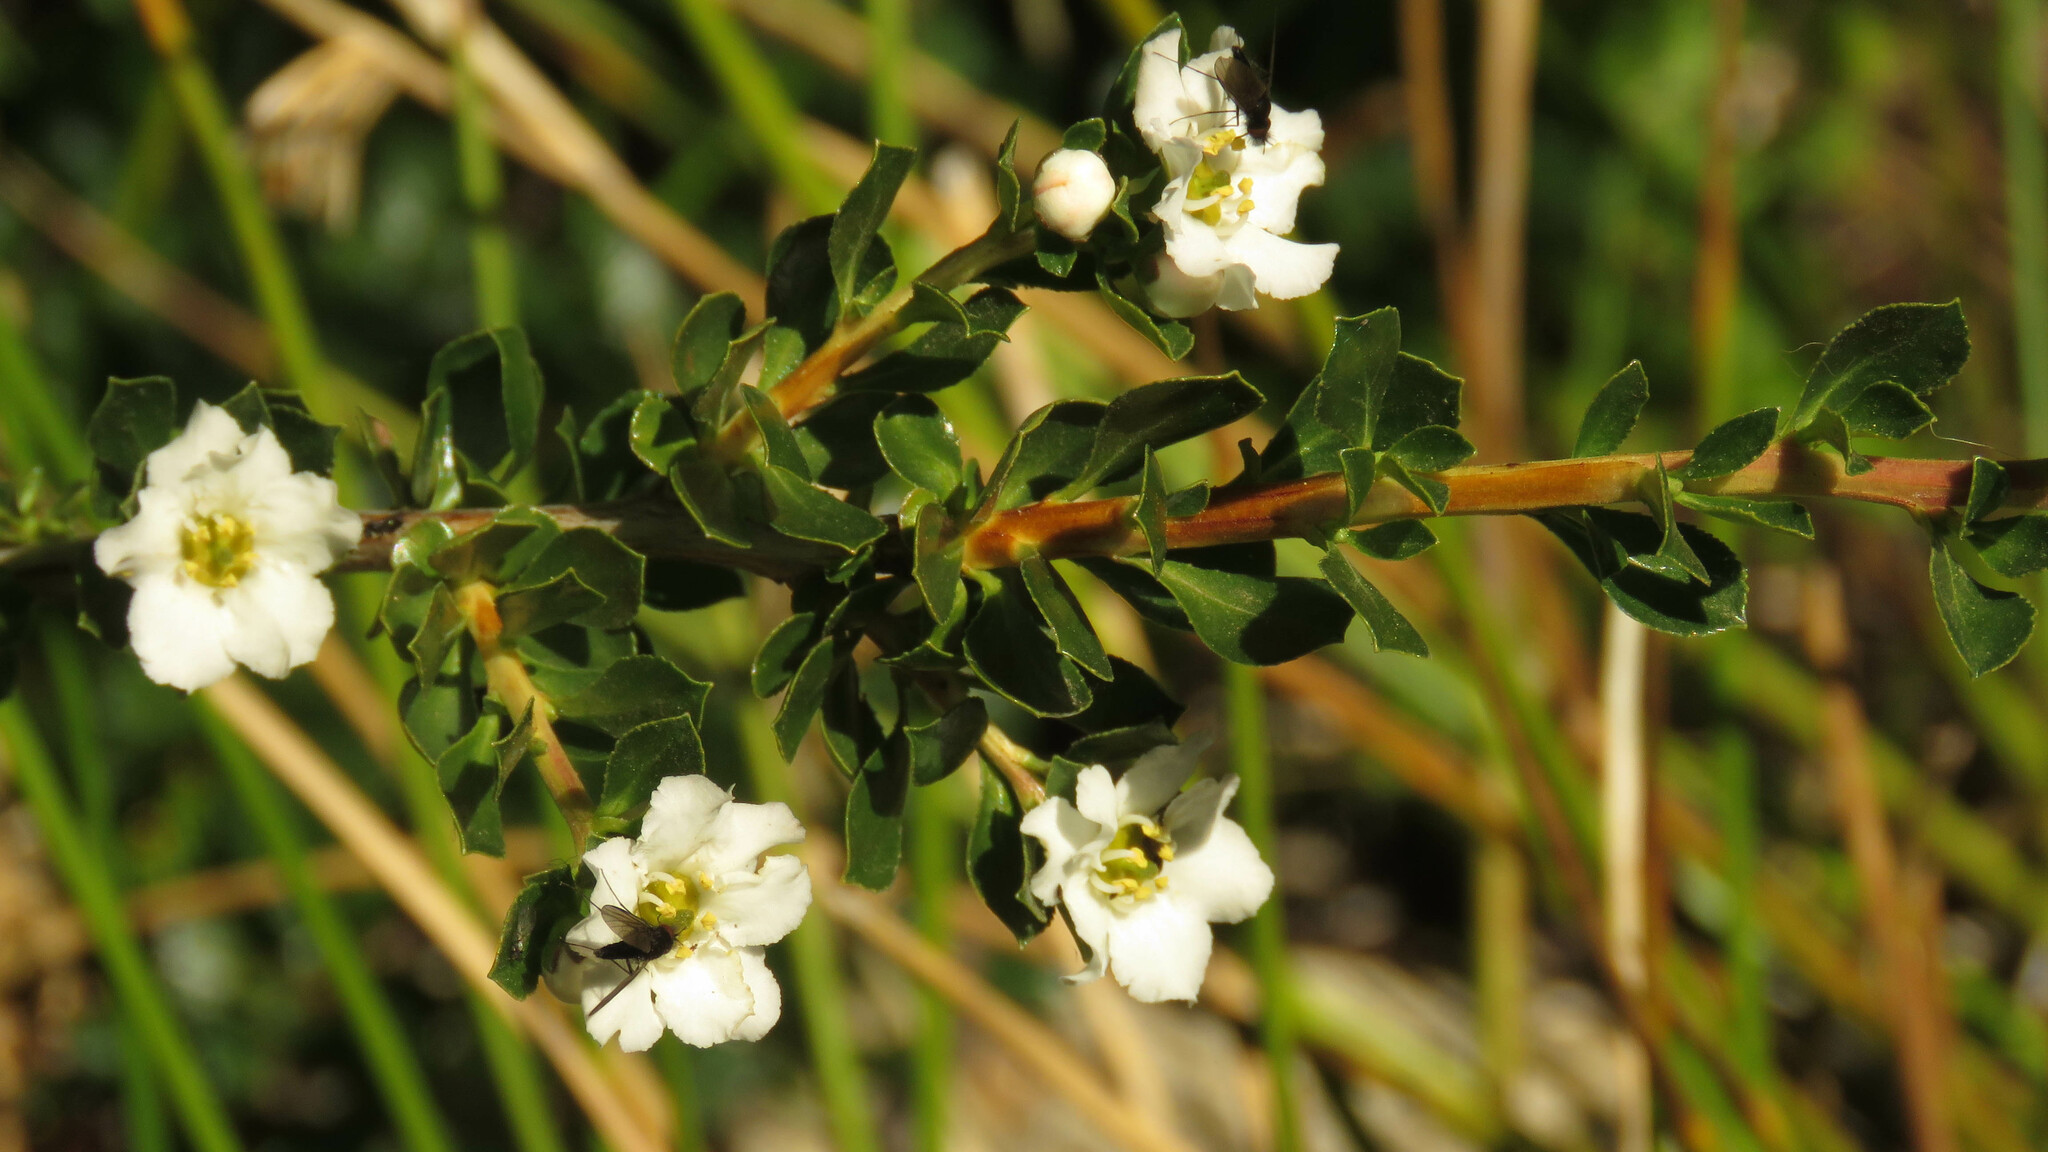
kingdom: Plantae
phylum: Tracheophyta
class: Magnoliopsida
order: Escalloniales
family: Escalloniaceae
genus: Escallonia
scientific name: Escallonia virgata
